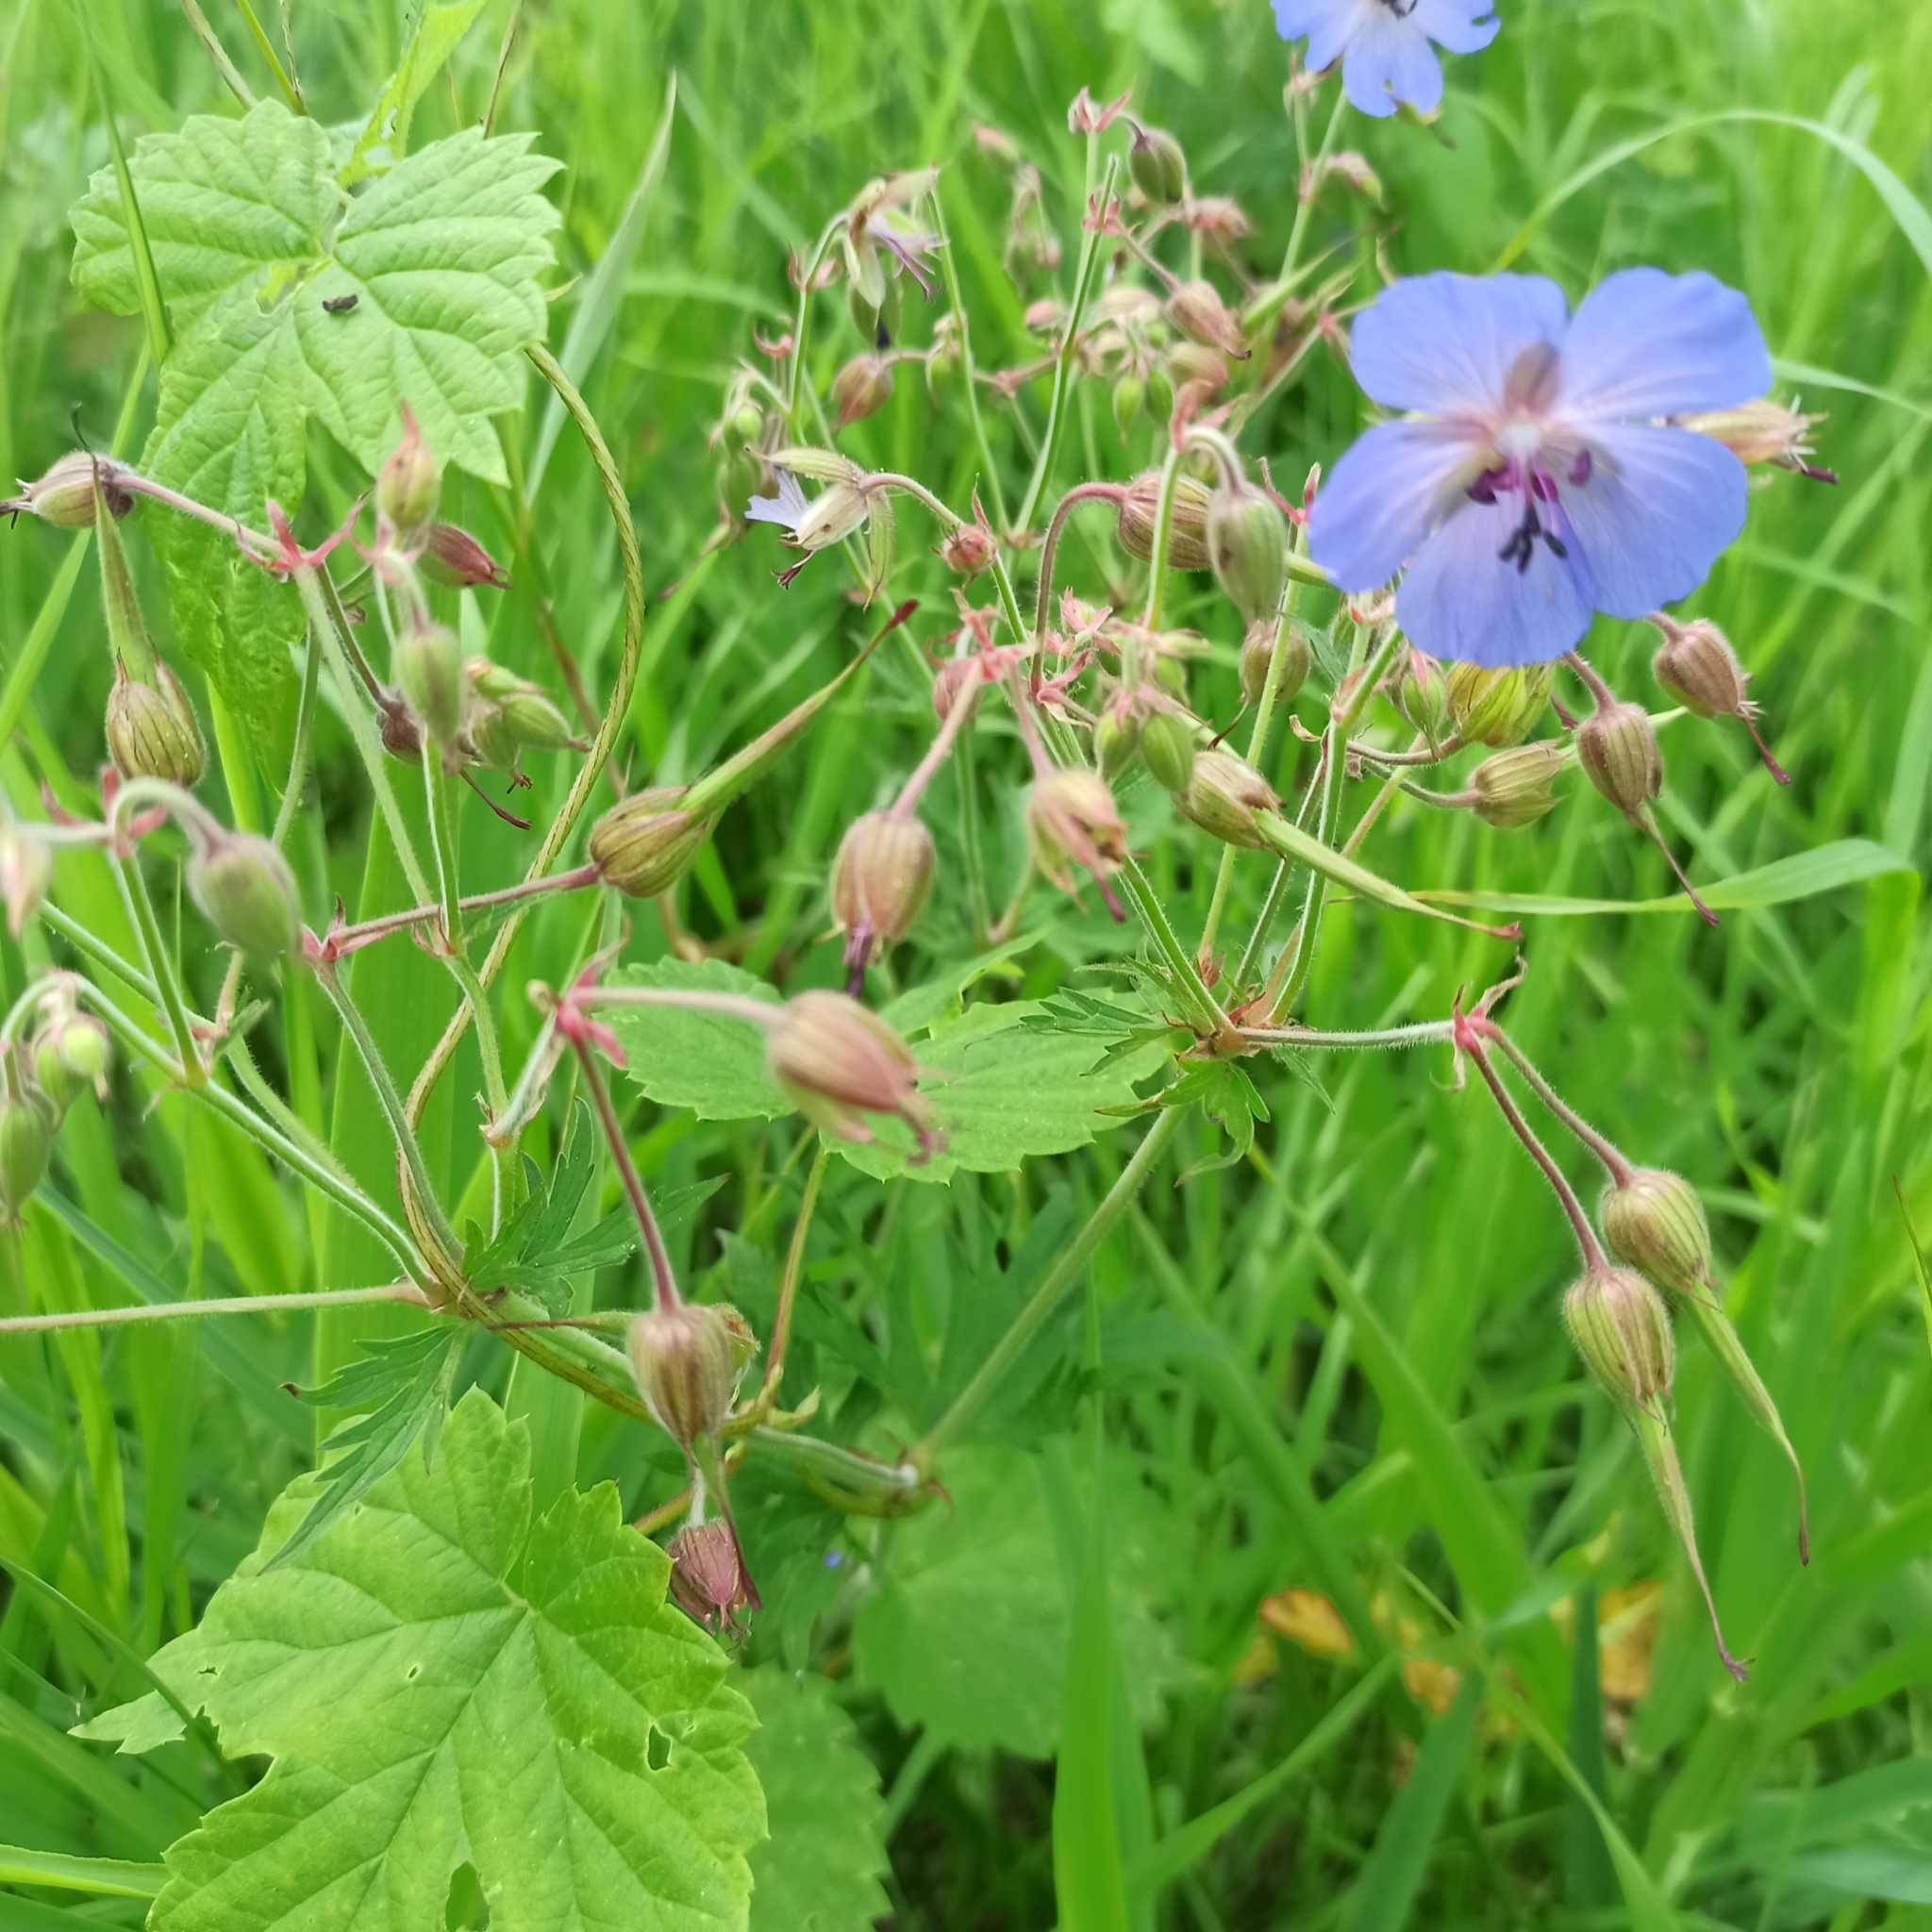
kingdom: Plantae
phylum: Tracheophyta
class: Magnoliopsida
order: Geraniales
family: Geraniaceae
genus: Geranium
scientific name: Geranium pratense
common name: Meadow crane's-bill
